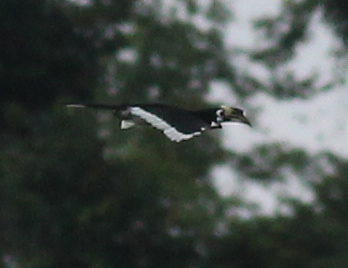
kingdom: Animalia
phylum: Chordata
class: Aves
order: Bucerotiformes
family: Bucerotidae
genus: Anthracoceros
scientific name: Anthracoceros albirostris
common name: Oriental pied-hornbill
